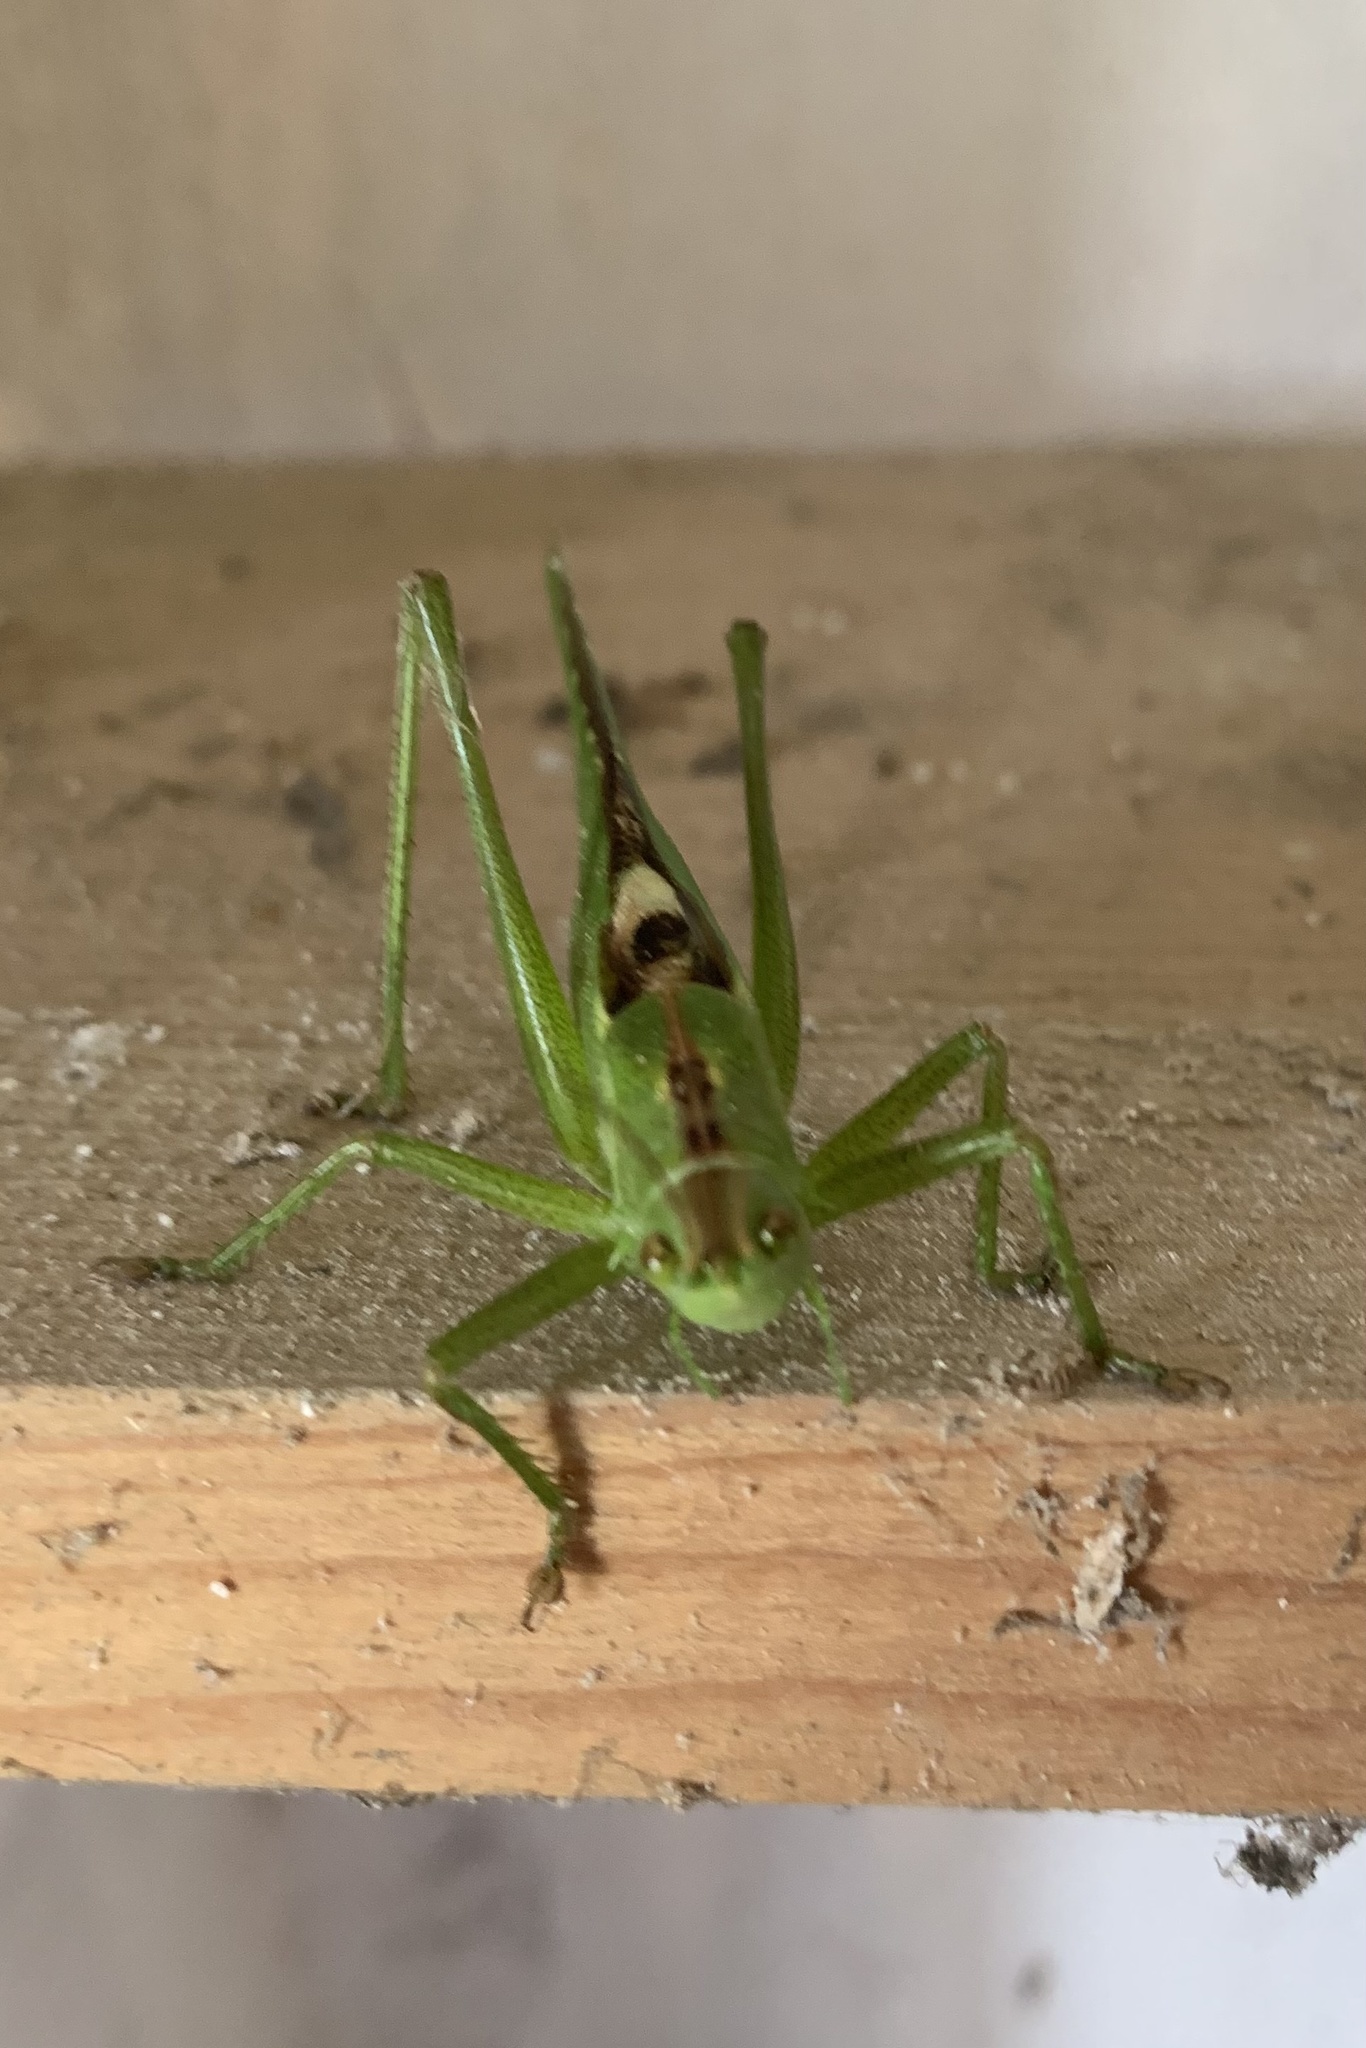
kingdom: Animalia
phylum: Arthropoda
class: Insecta
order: Orthoptera
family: Tettigoniidae
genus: Tettigonia
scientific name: Tettigonia viridissima
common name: Great green bush-cricket
